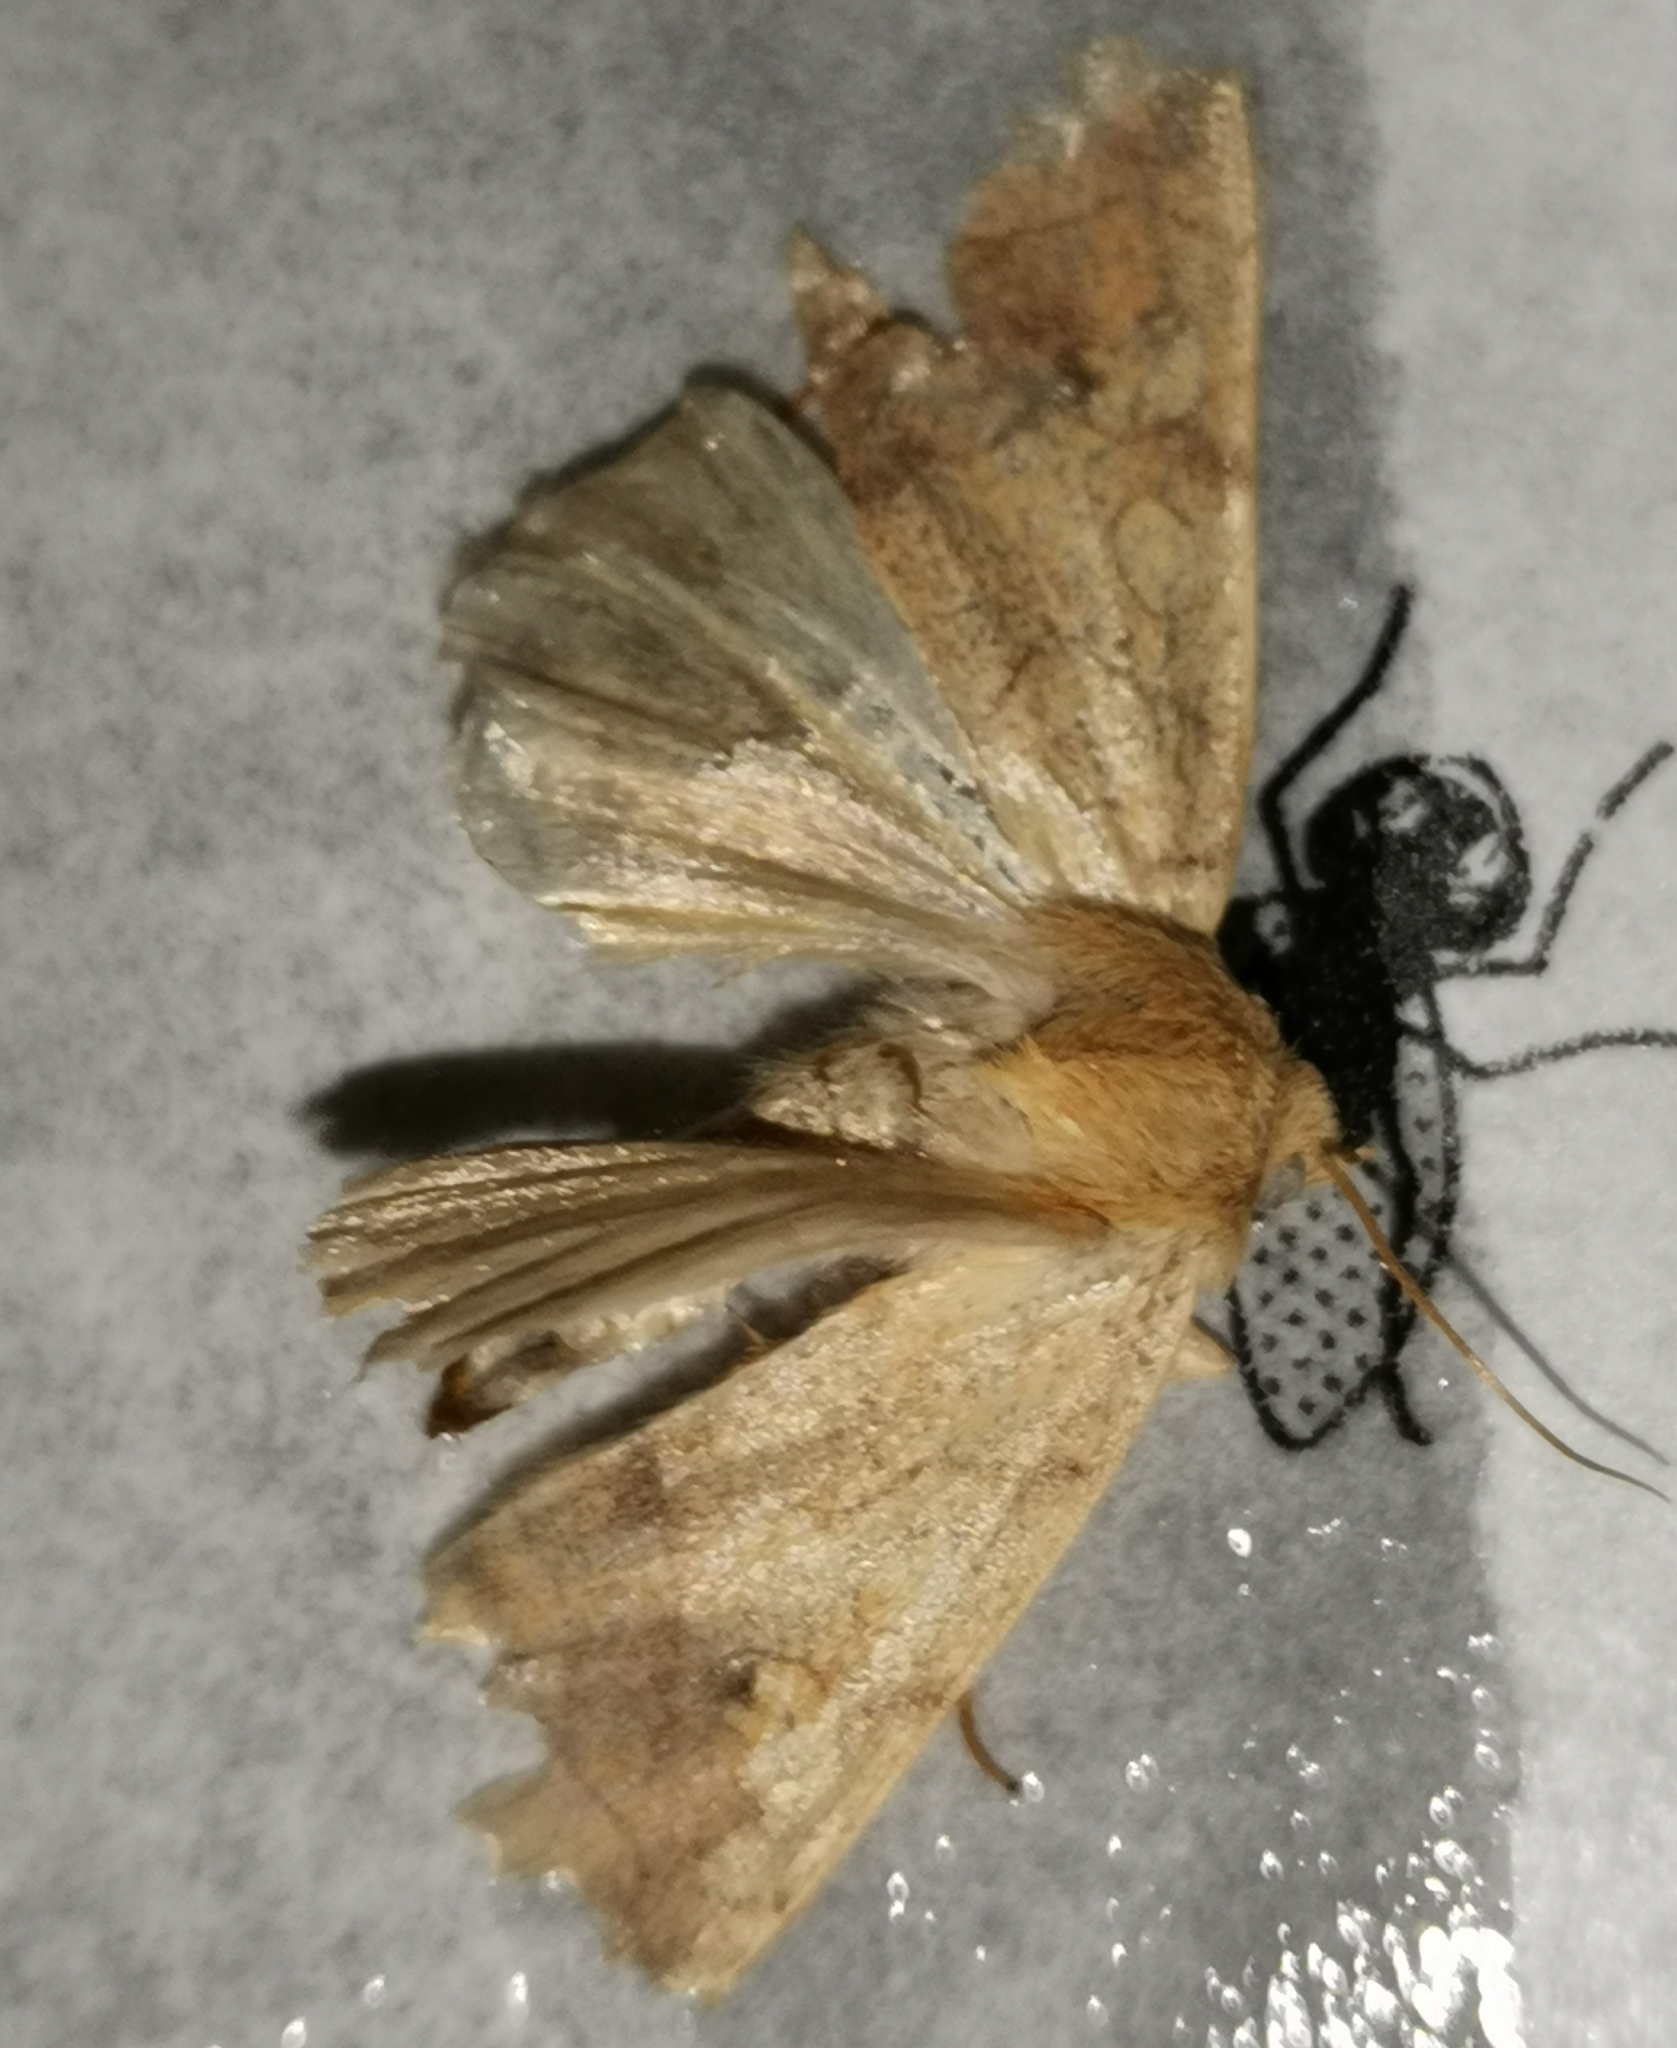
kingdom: Animalia
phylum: Arthropoda
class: Insecta
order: Lepidoptera
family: Noctuidae
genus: Enargia
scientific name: Enargia paleacea
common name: Angle-striped sallow
